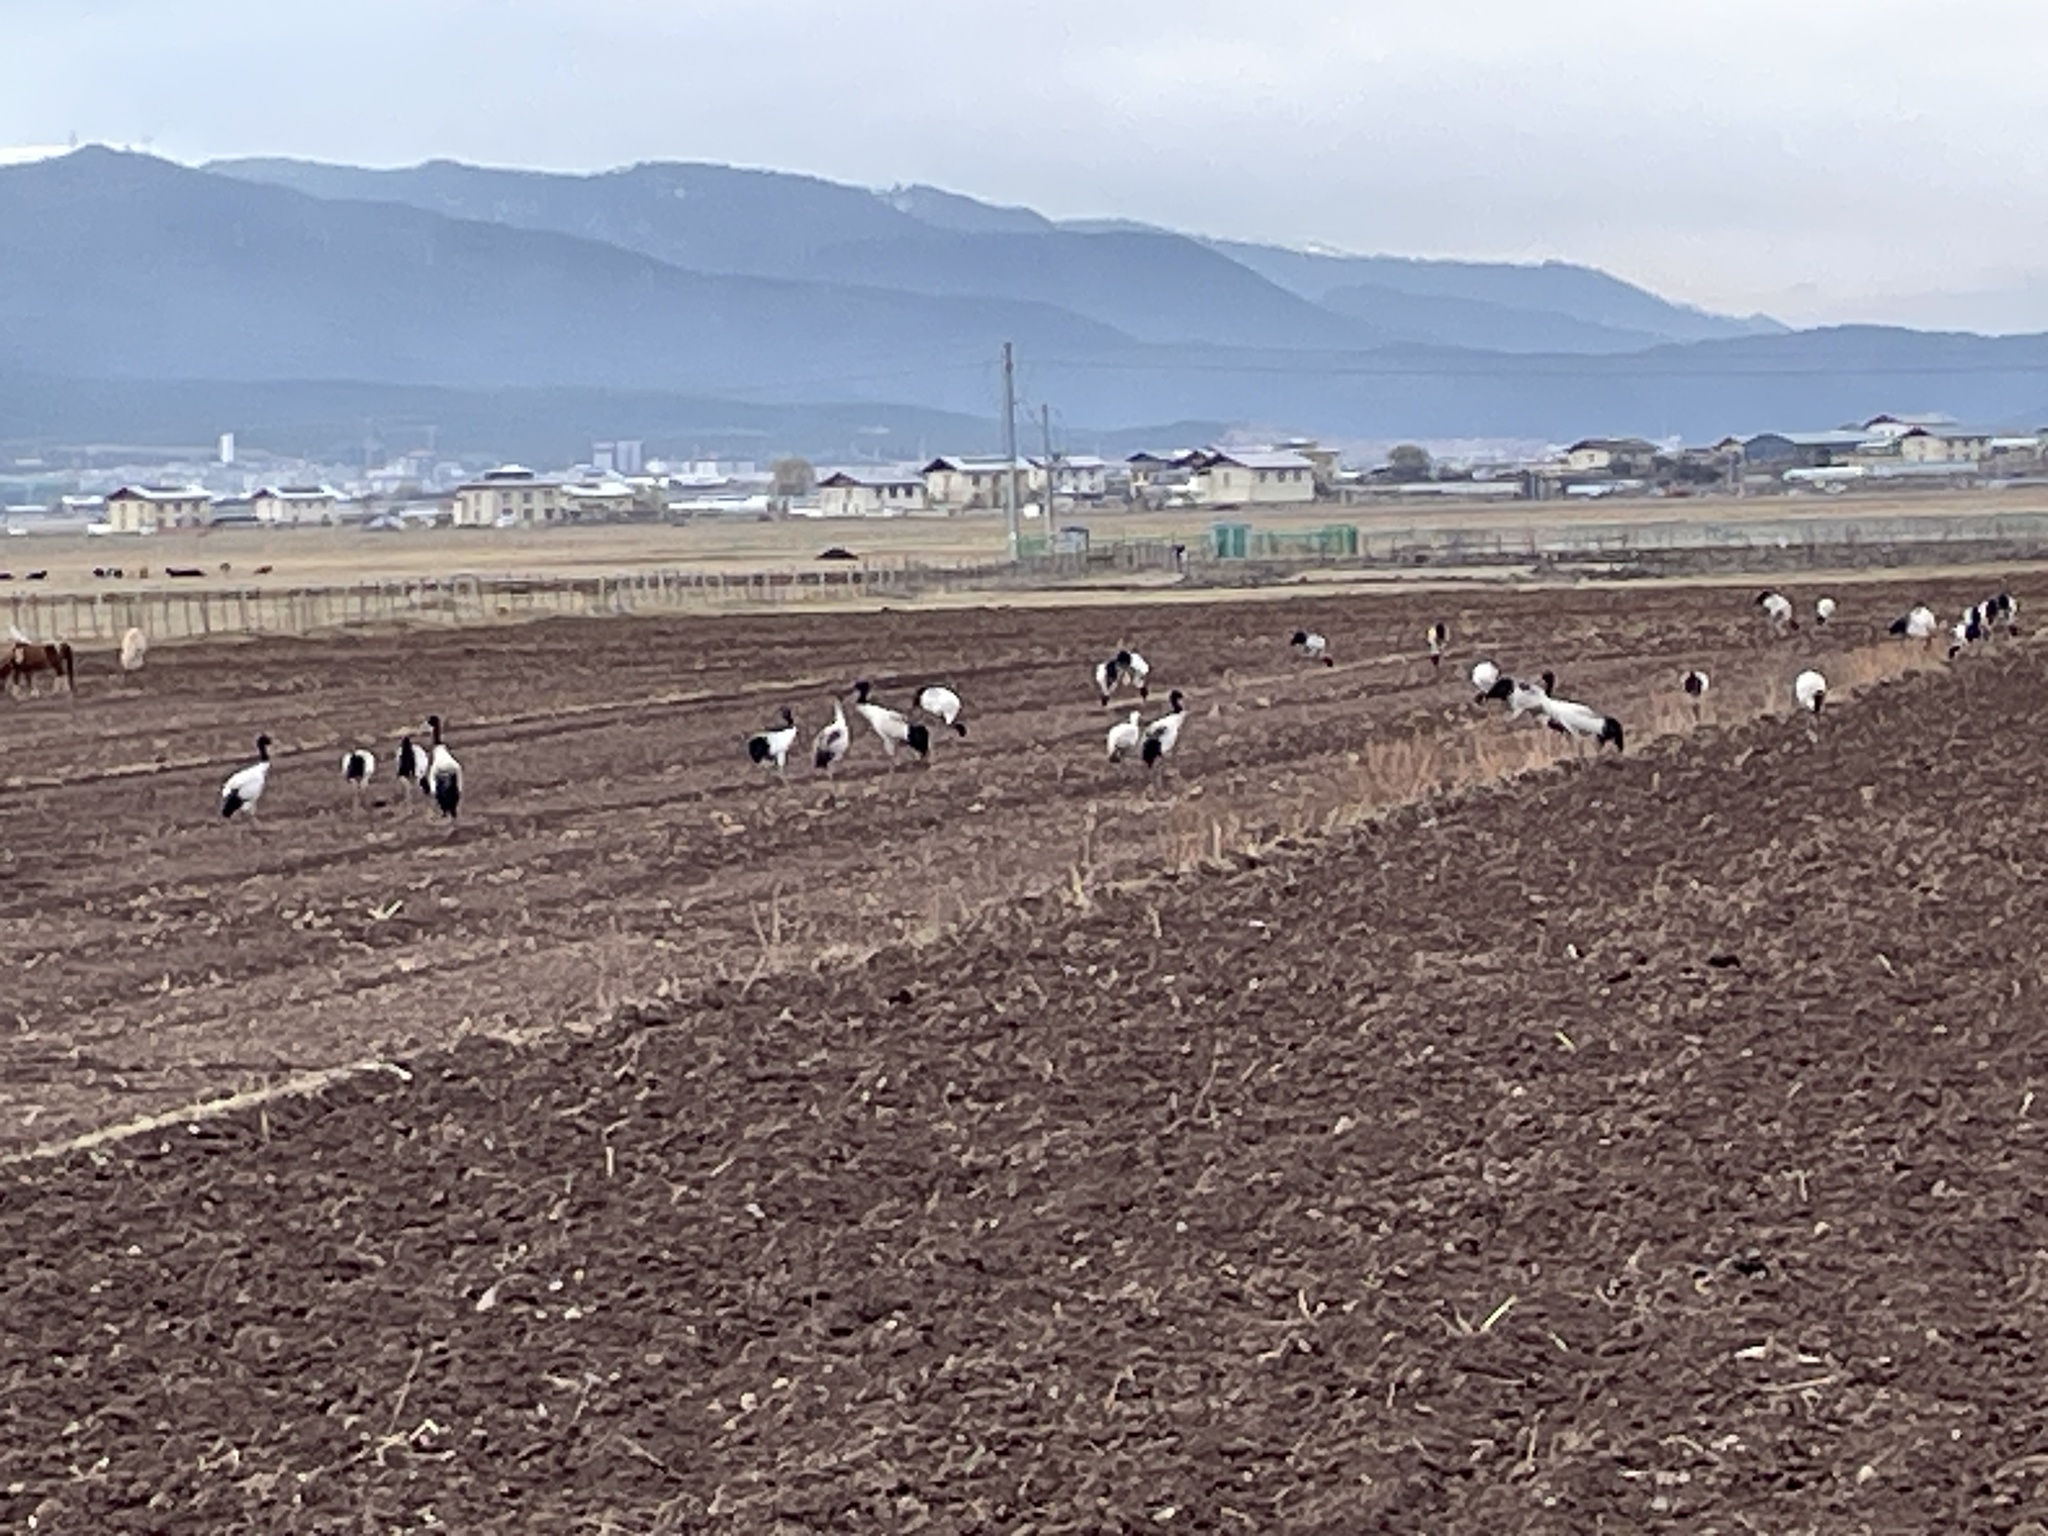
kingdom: Animalia
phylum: Chordata
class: Aves
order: Gruiformes
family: Gruidae
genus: Grus
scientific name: Grus nigricollis
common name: Black-necked crane
